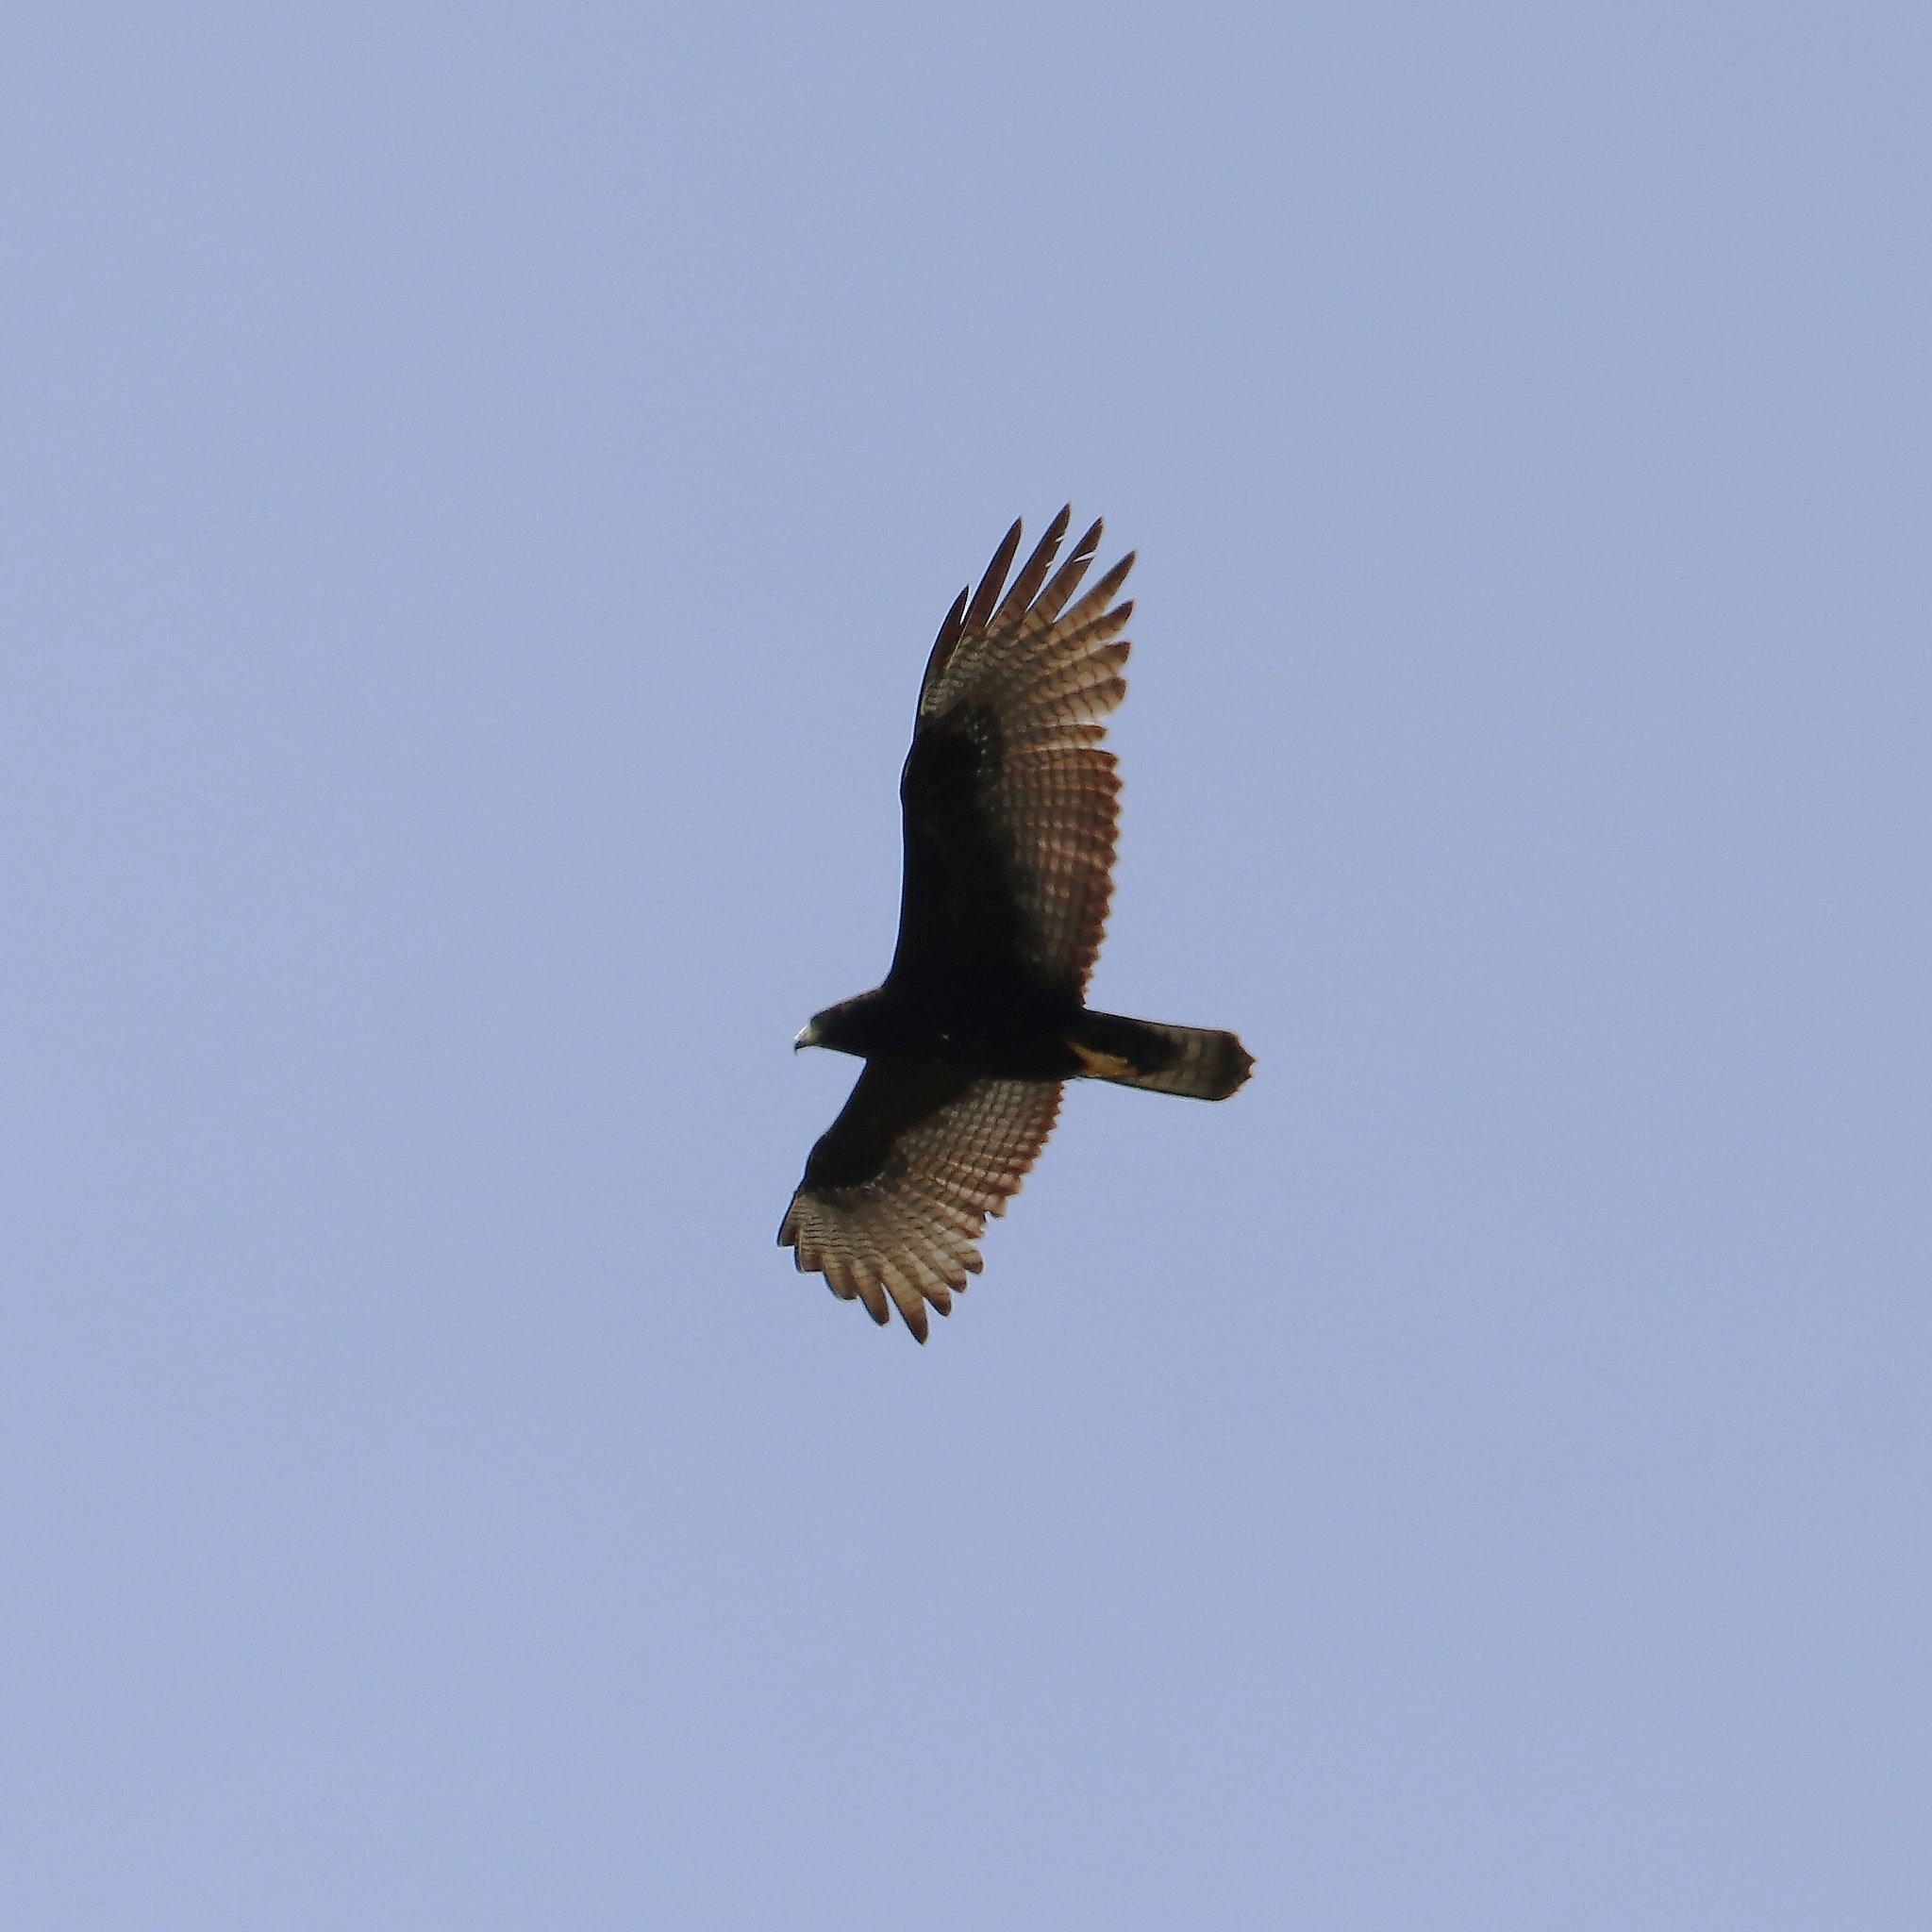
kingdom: Animalia
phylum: Chordata
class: Aves
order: Accipitriformes
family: Accipitridae
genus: Buteo
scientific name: Buteo albonotatus
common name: Zone-tailed hawk
